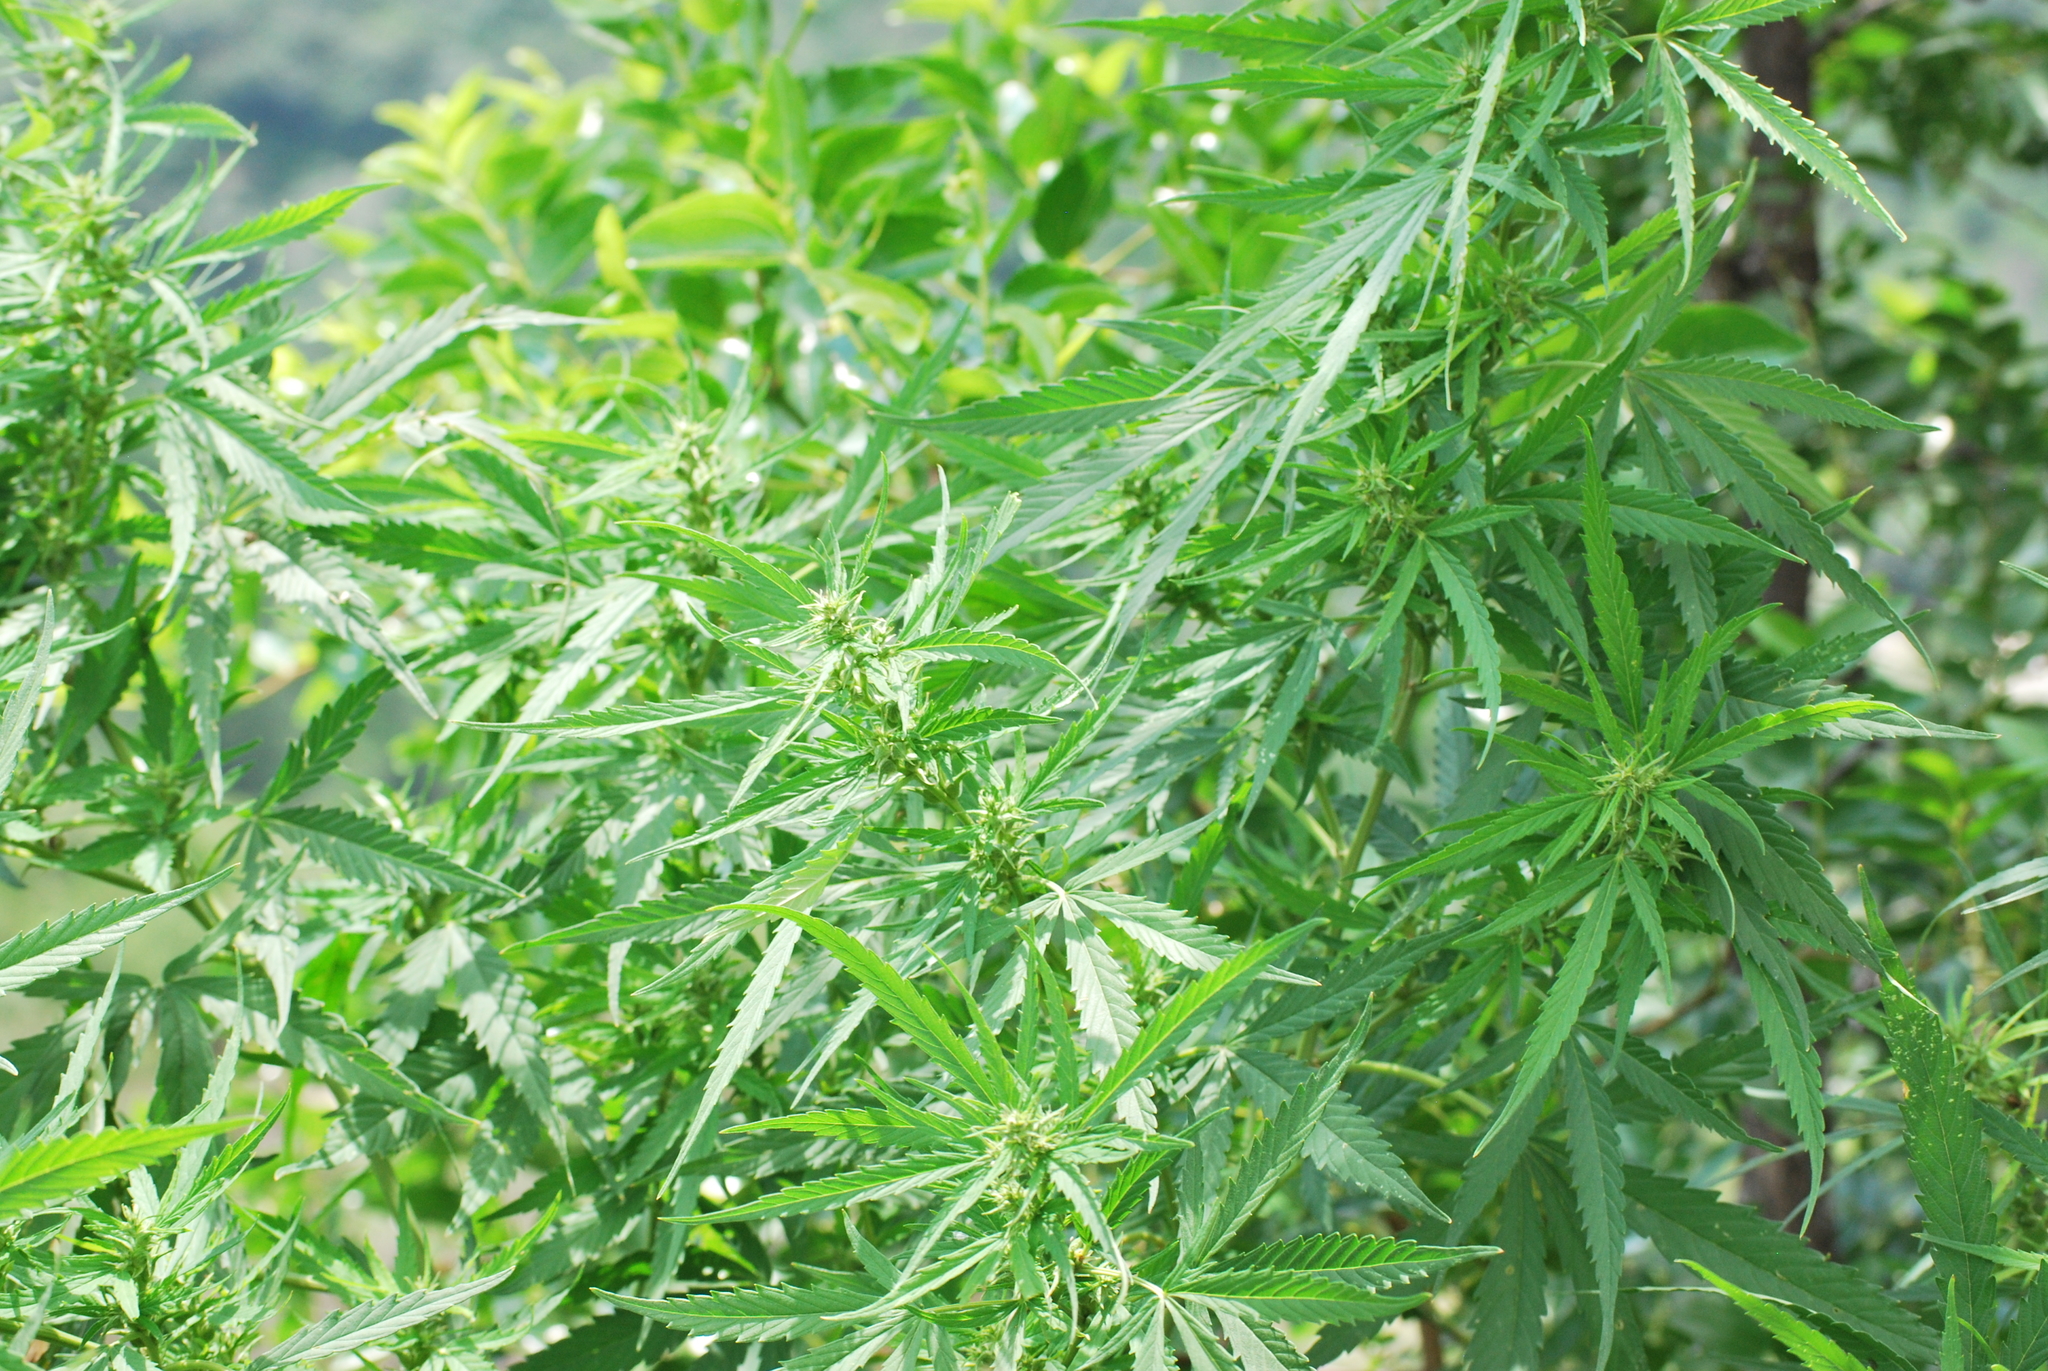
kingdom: Plantae
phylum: Tracheophyta
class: Magnoliopsida
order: Rosales
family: Cannabaceae
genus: Cannabis
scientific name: Cannabis sativa
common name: Hemp
